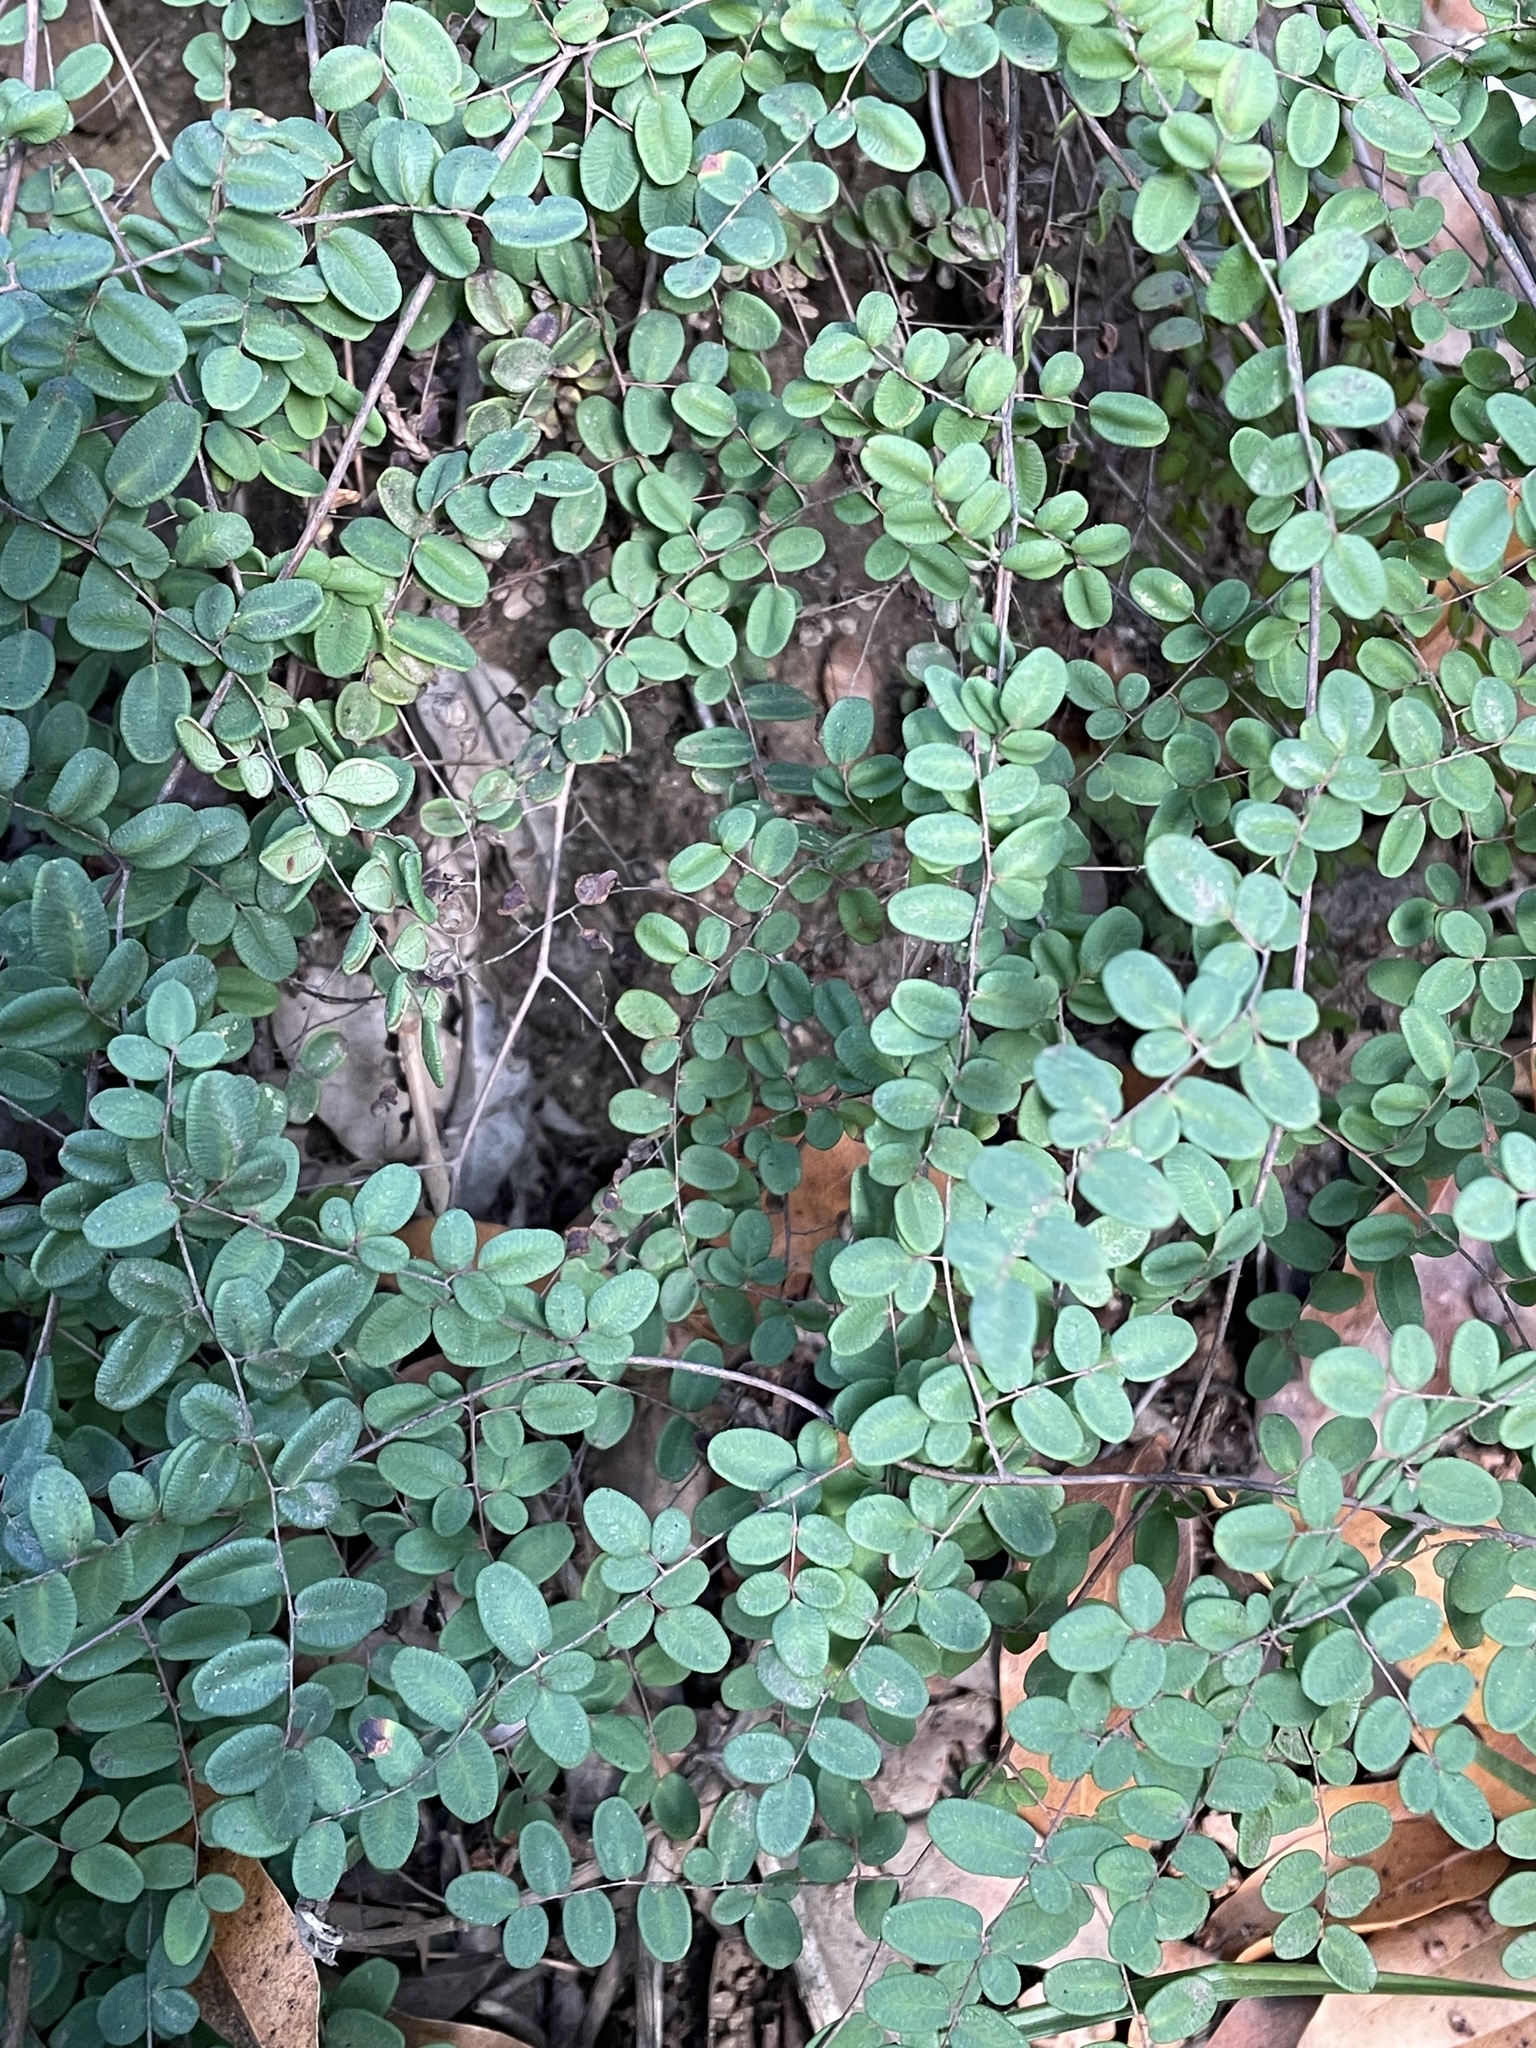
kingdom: Plantae
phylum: Tracheophyta
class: Polypodiopsida
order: Polypodiales
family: Pteridaceae
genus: Pellaea
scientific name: Pellaea andromedifolia
